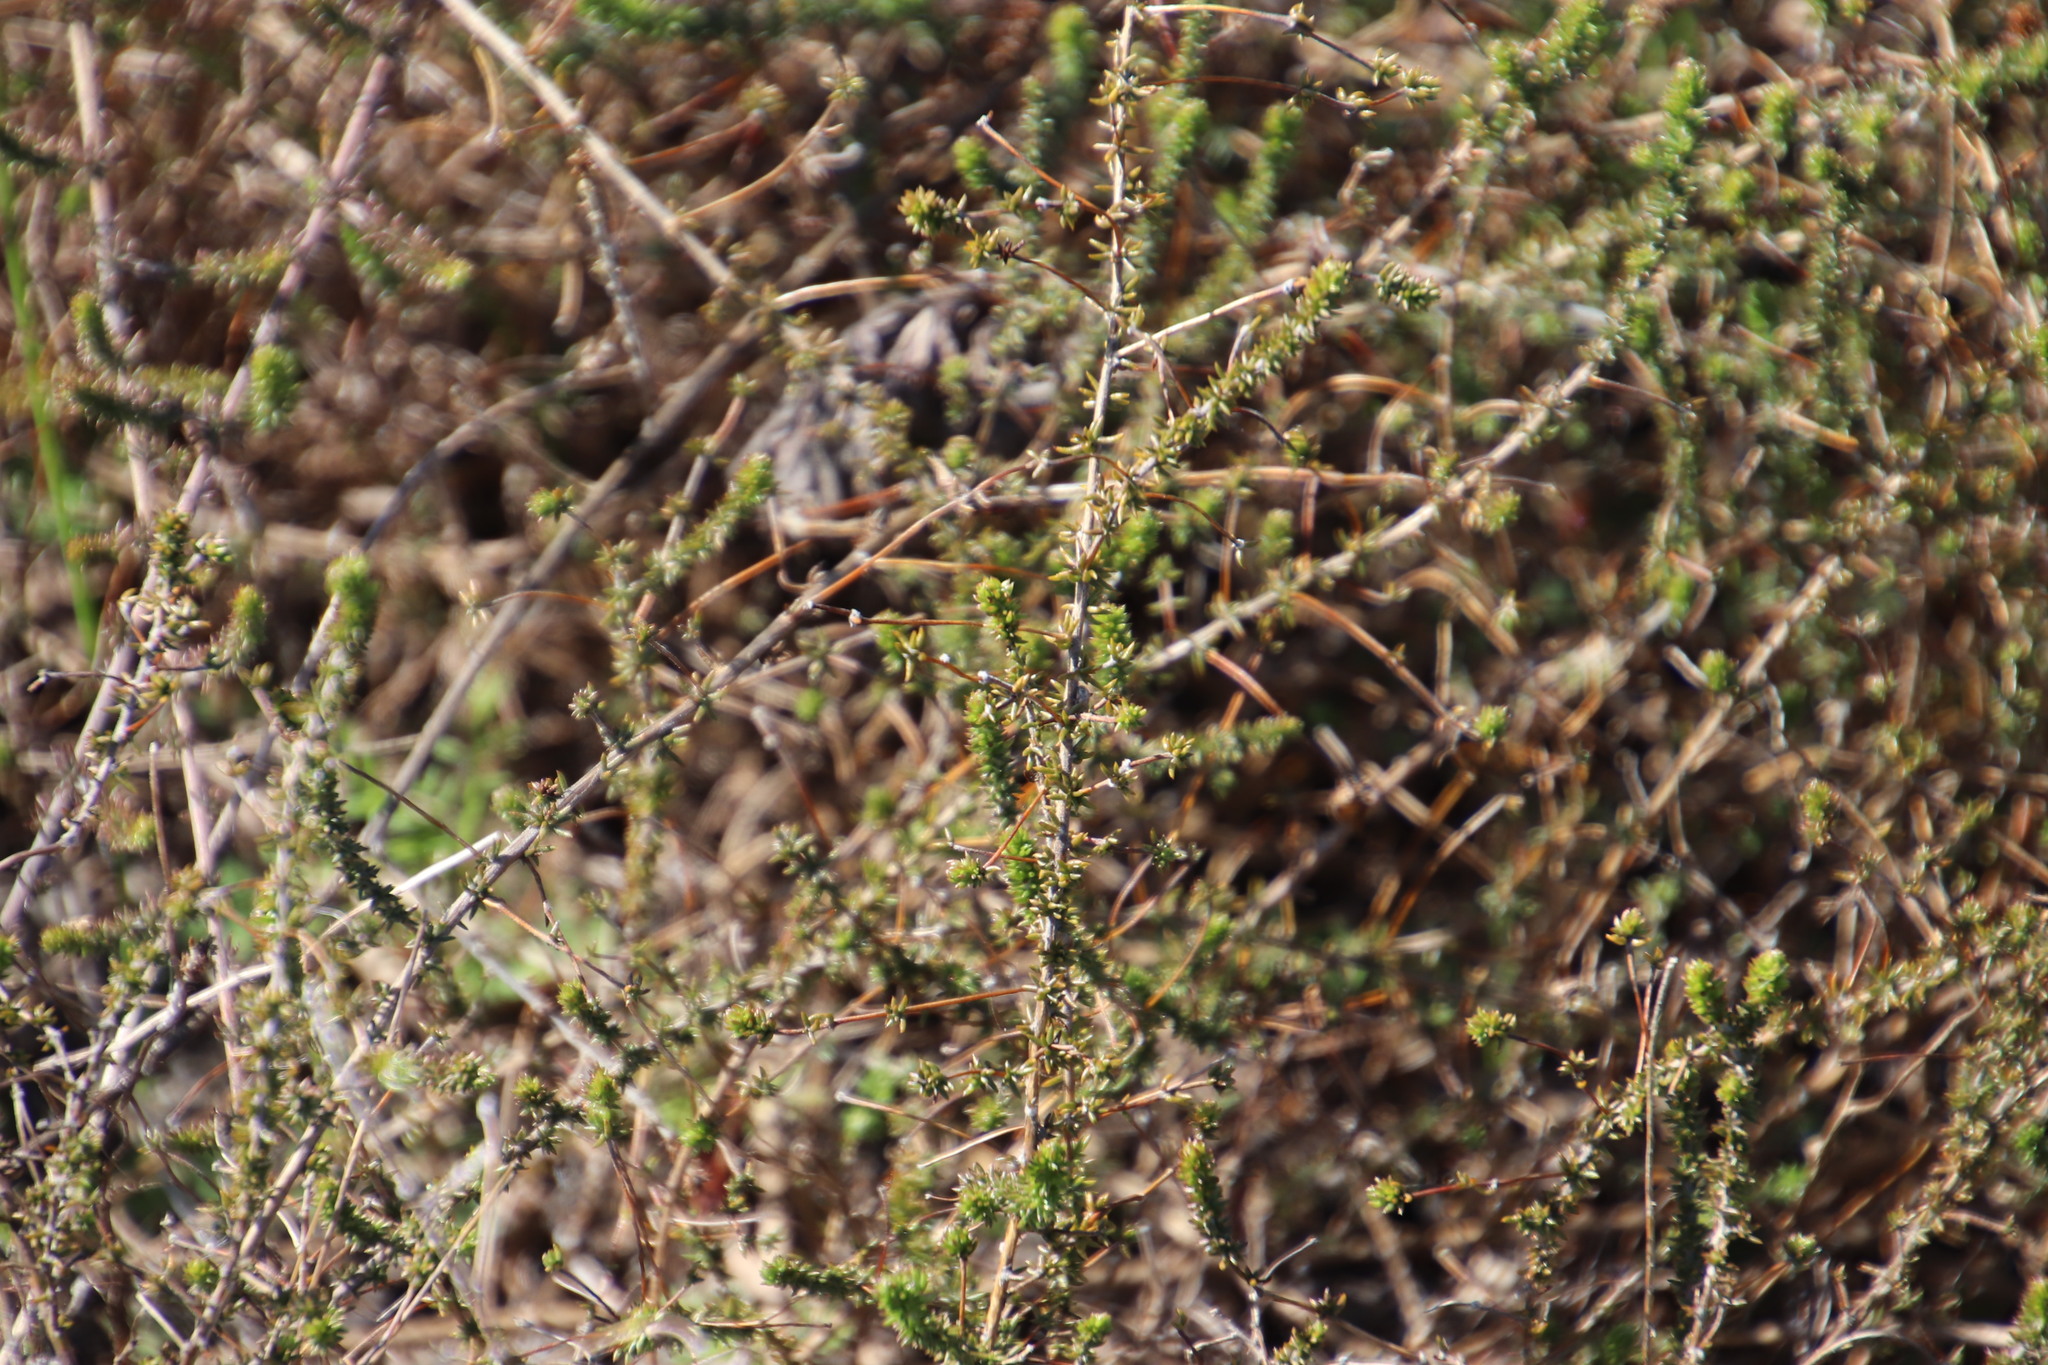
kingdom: Plantae
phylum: Tracheophyta
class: Magnoliopsida
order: Fabales
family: Fabaceae
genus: Aspalathus
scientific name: Aspalathus divaricata
